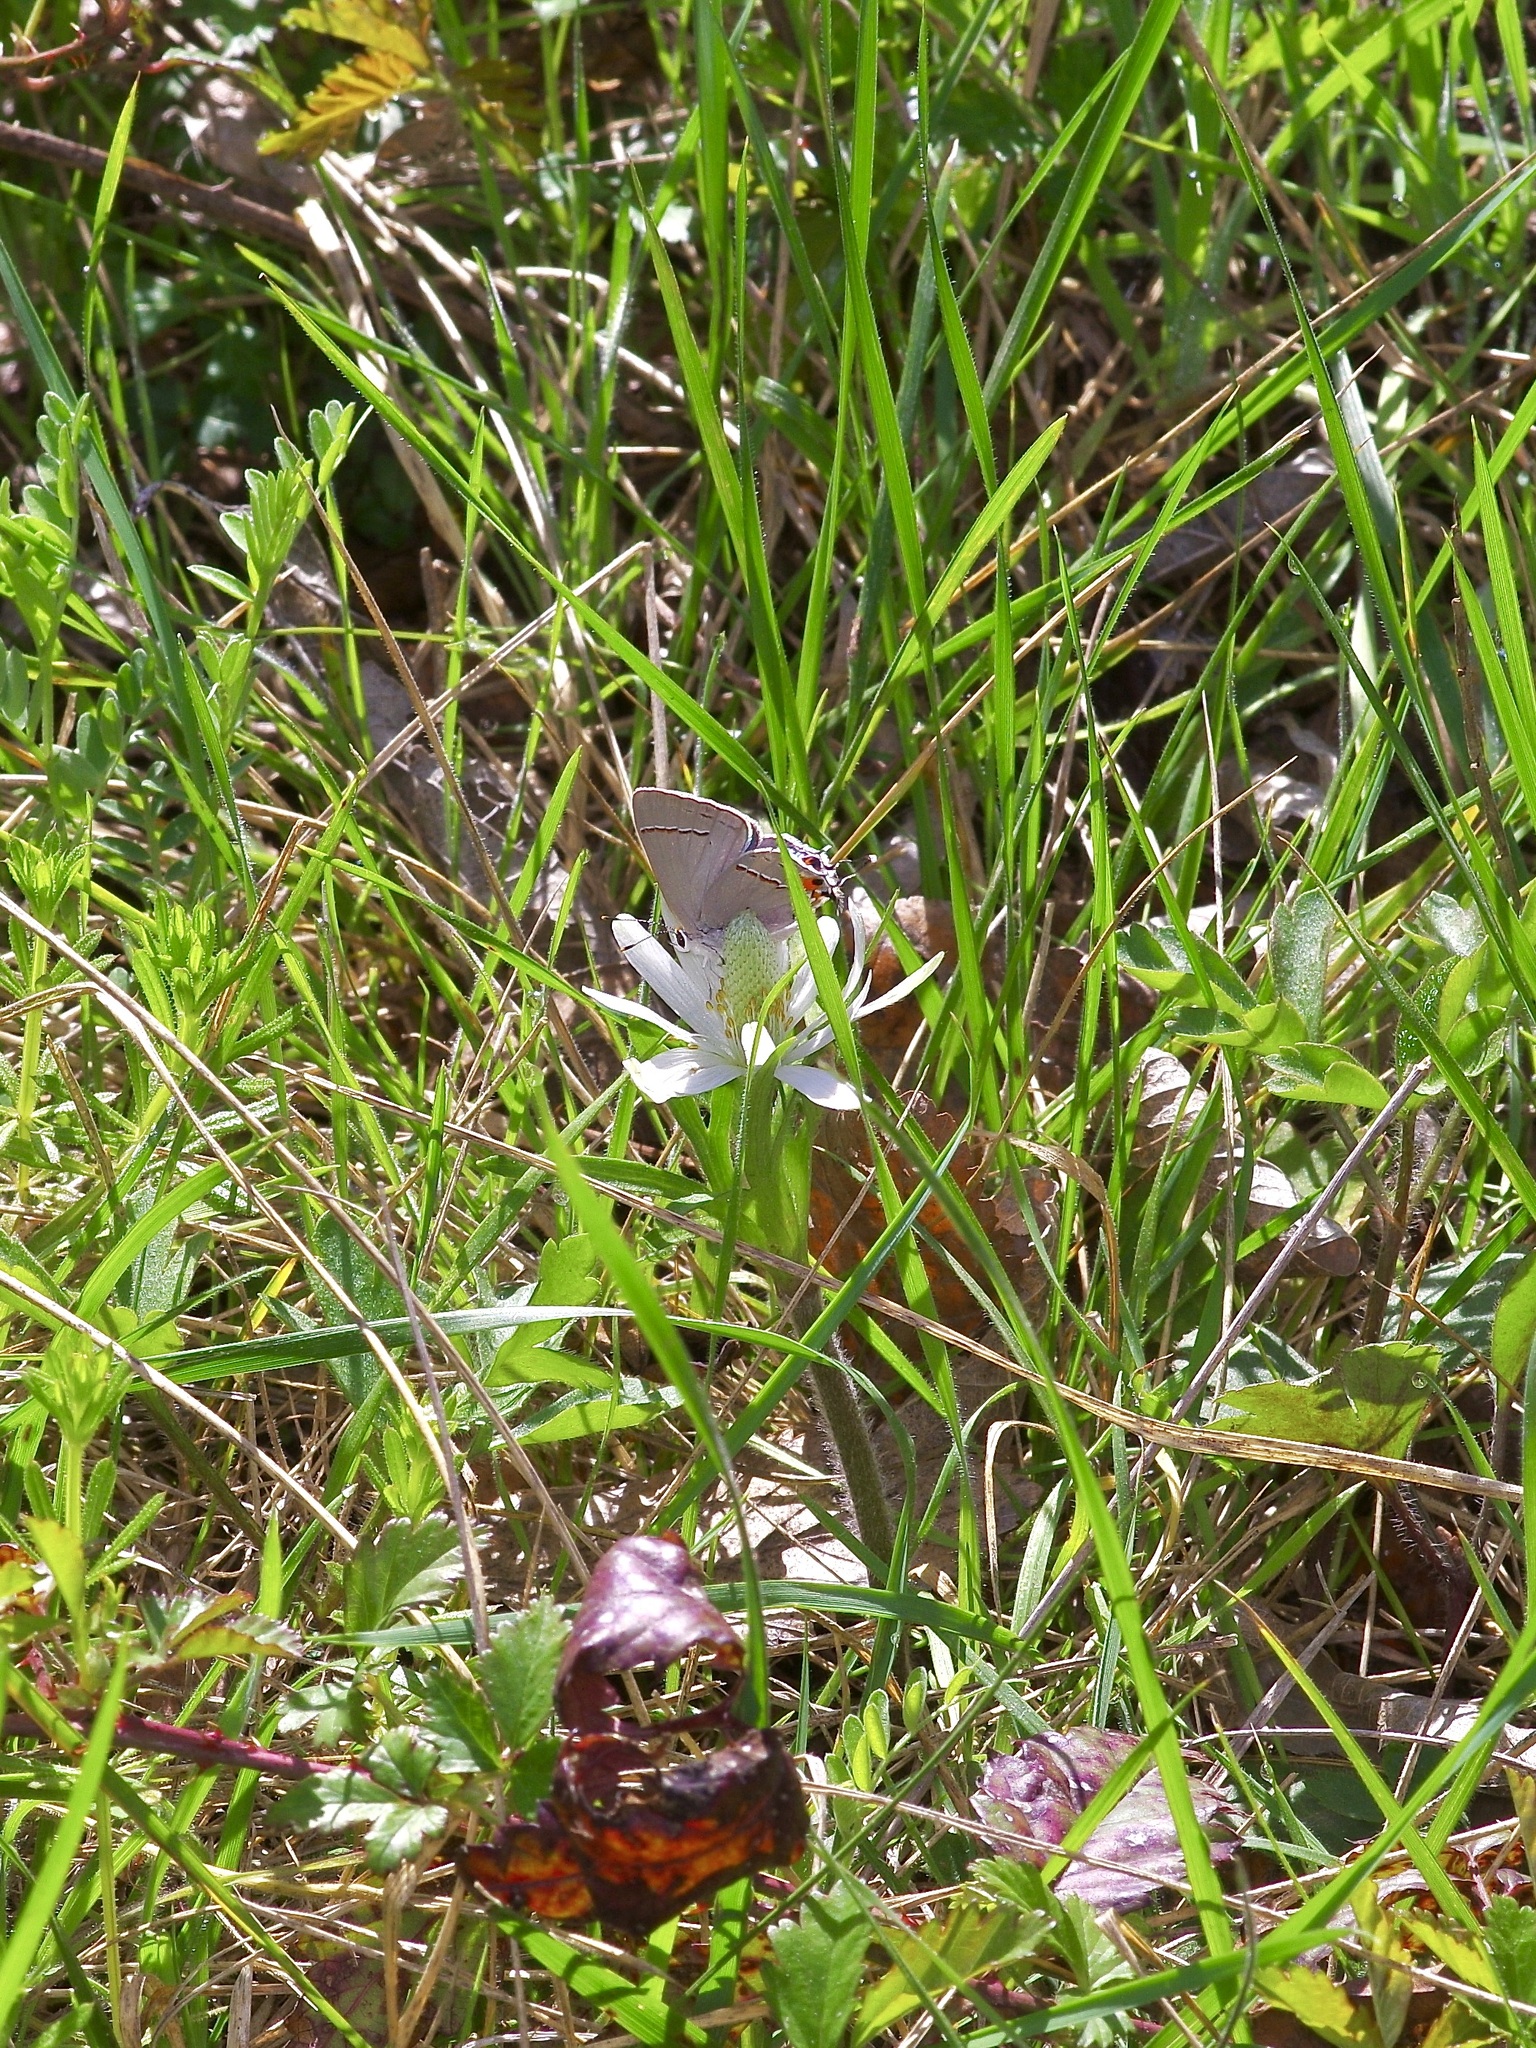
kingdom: Animalia
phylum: Arthropoda
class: Insecta
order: Lepidoptera
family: Lycaenidae
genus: Strymon
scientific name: Strymon melinus
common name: Gray hairstreak
